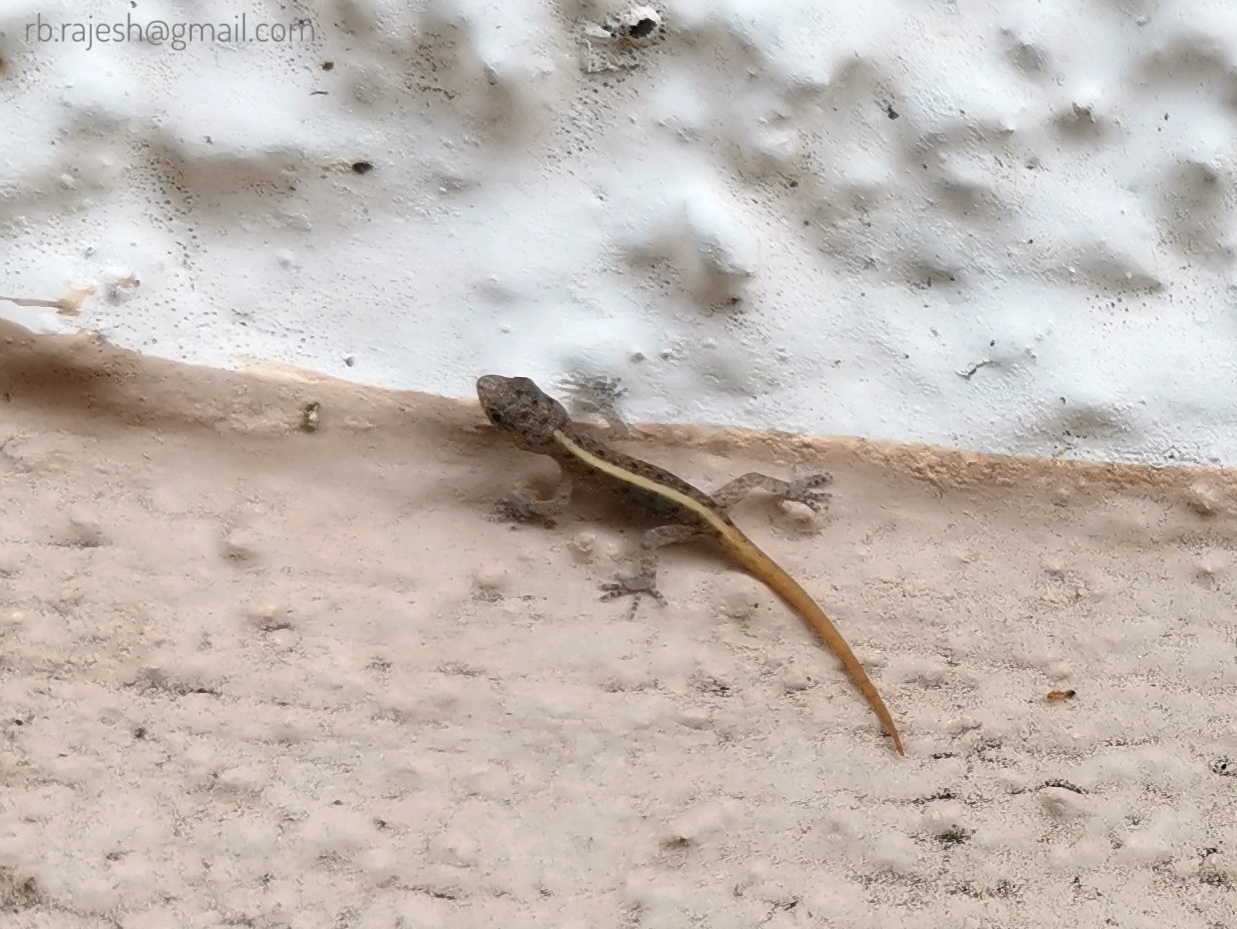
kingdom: Animalia
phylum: Chordata
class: Squamata
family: Gekkonidae
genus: Cnemaspis
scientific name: Cnemaspis mysoriensis
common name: Mysore day gecko
